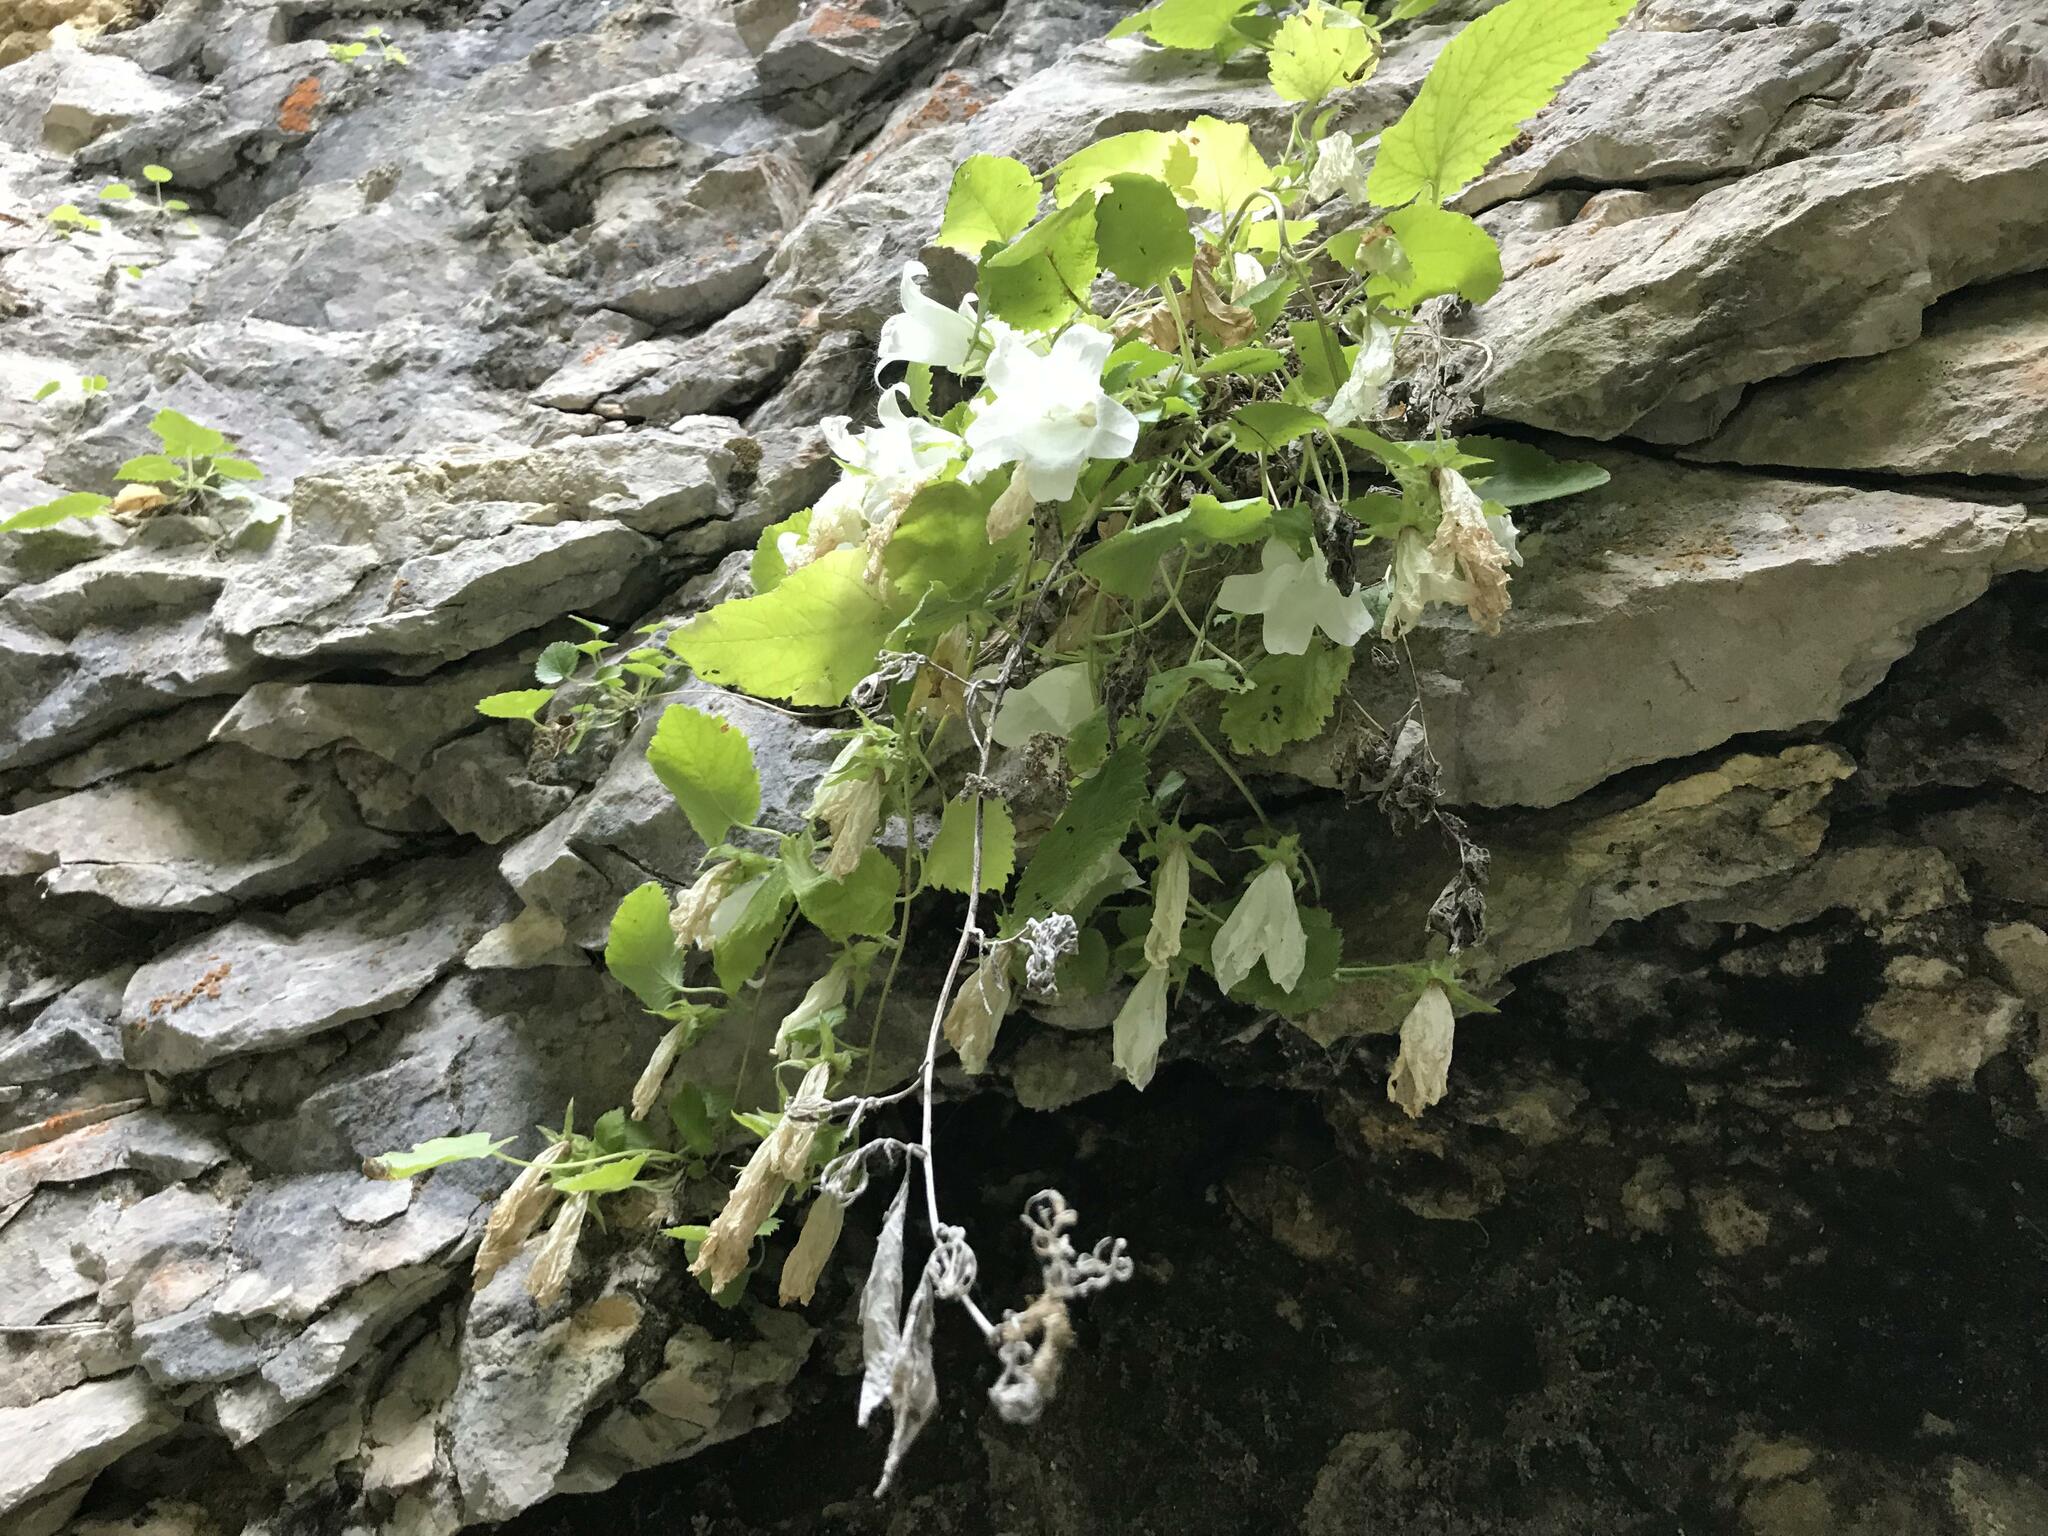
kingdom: Plantae
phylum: Tracheophyta
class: Magnoliopsida
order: Asterales
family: Campanulaceae
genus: Campanula
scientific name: Campanula pendula
